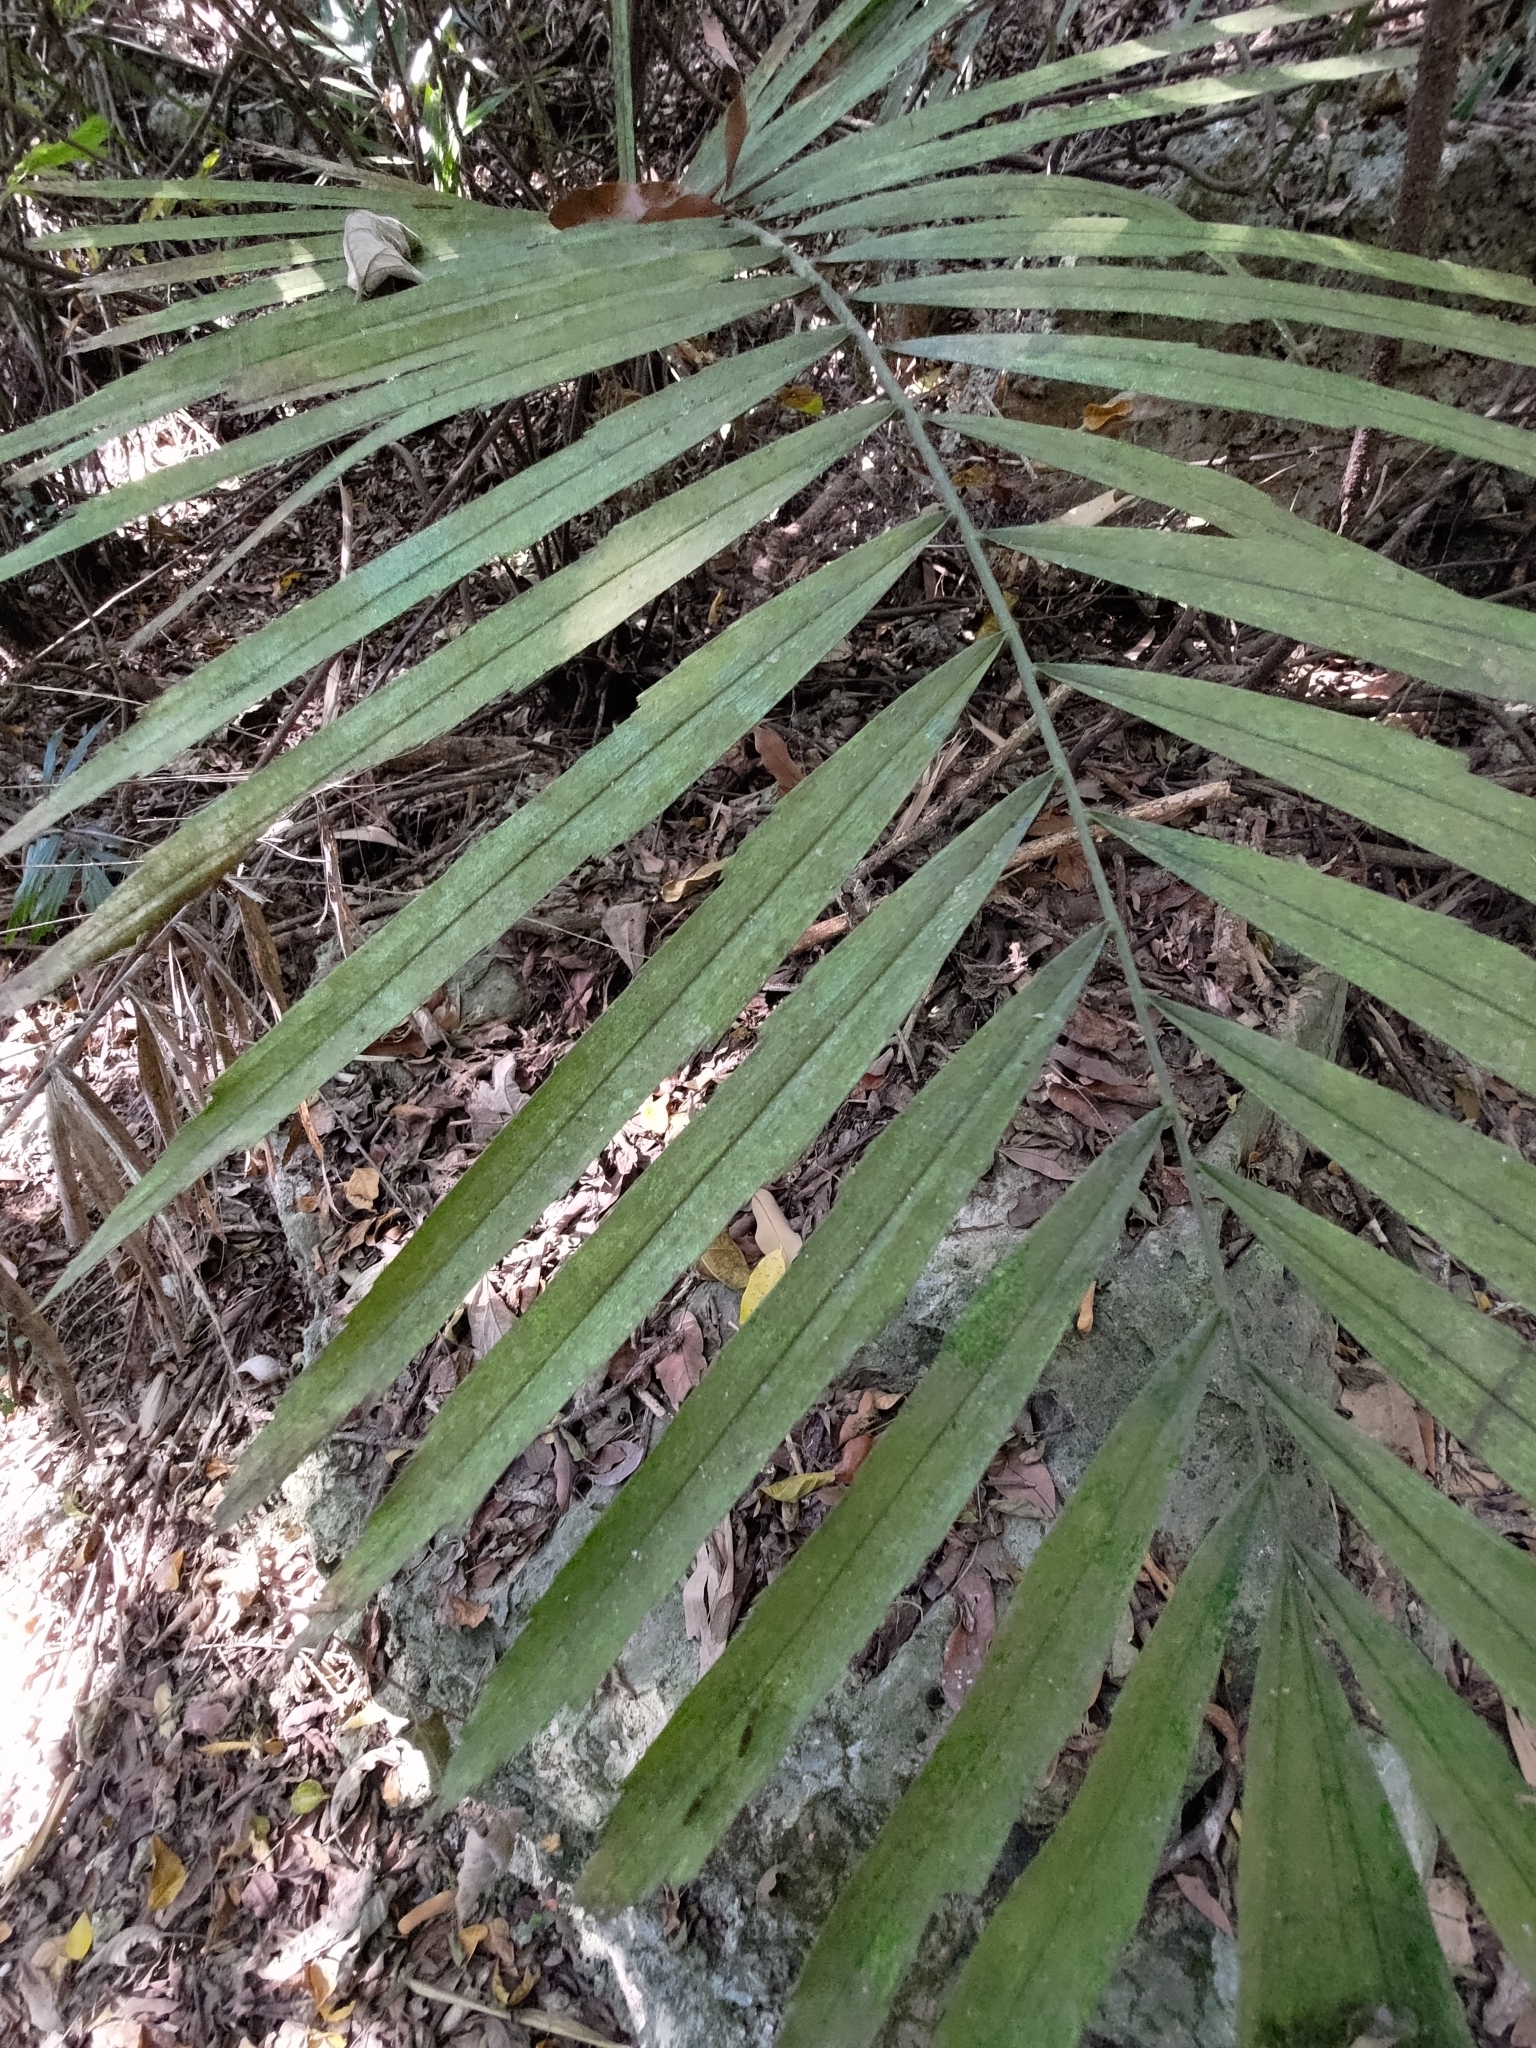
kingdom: Plantae
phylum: Tracheophyta
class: Liliopsida
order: Arecales
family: Arecaceae
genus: Arenga
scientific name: Arenga engleri
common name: Formosan sugar palm
